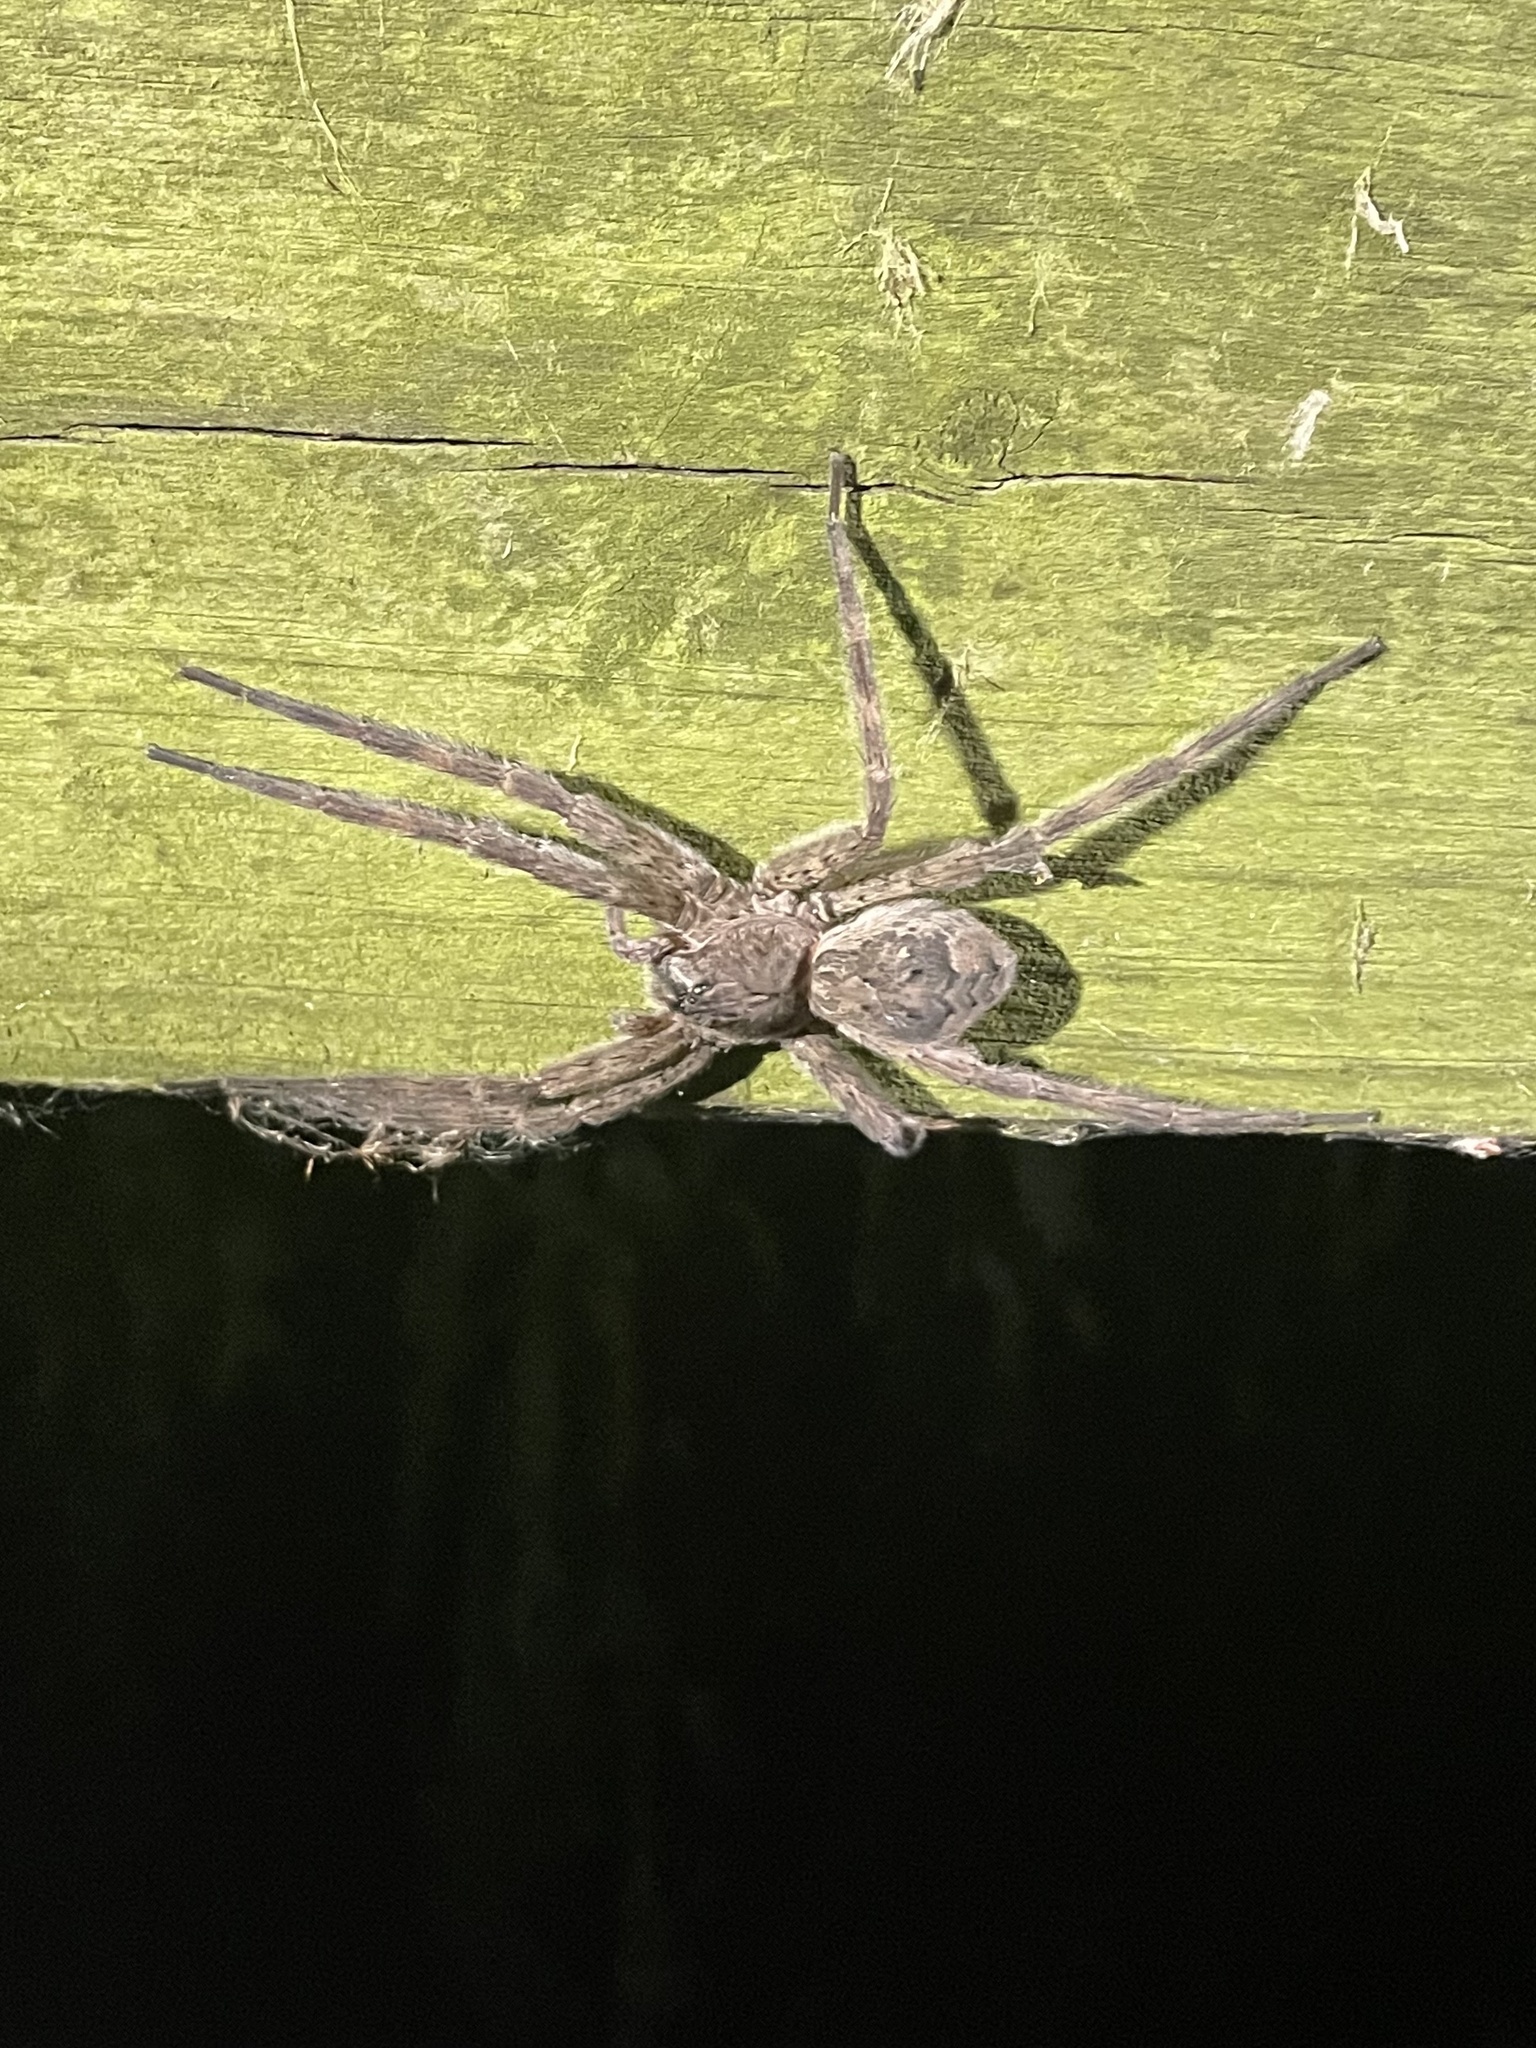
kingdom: Animalia
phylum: Arthropoda
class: Arachnida
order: Araneae
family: Pisauridae
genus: Dolomedes
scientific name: Dolomedes tenebrosus
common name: Dark fishing spider
